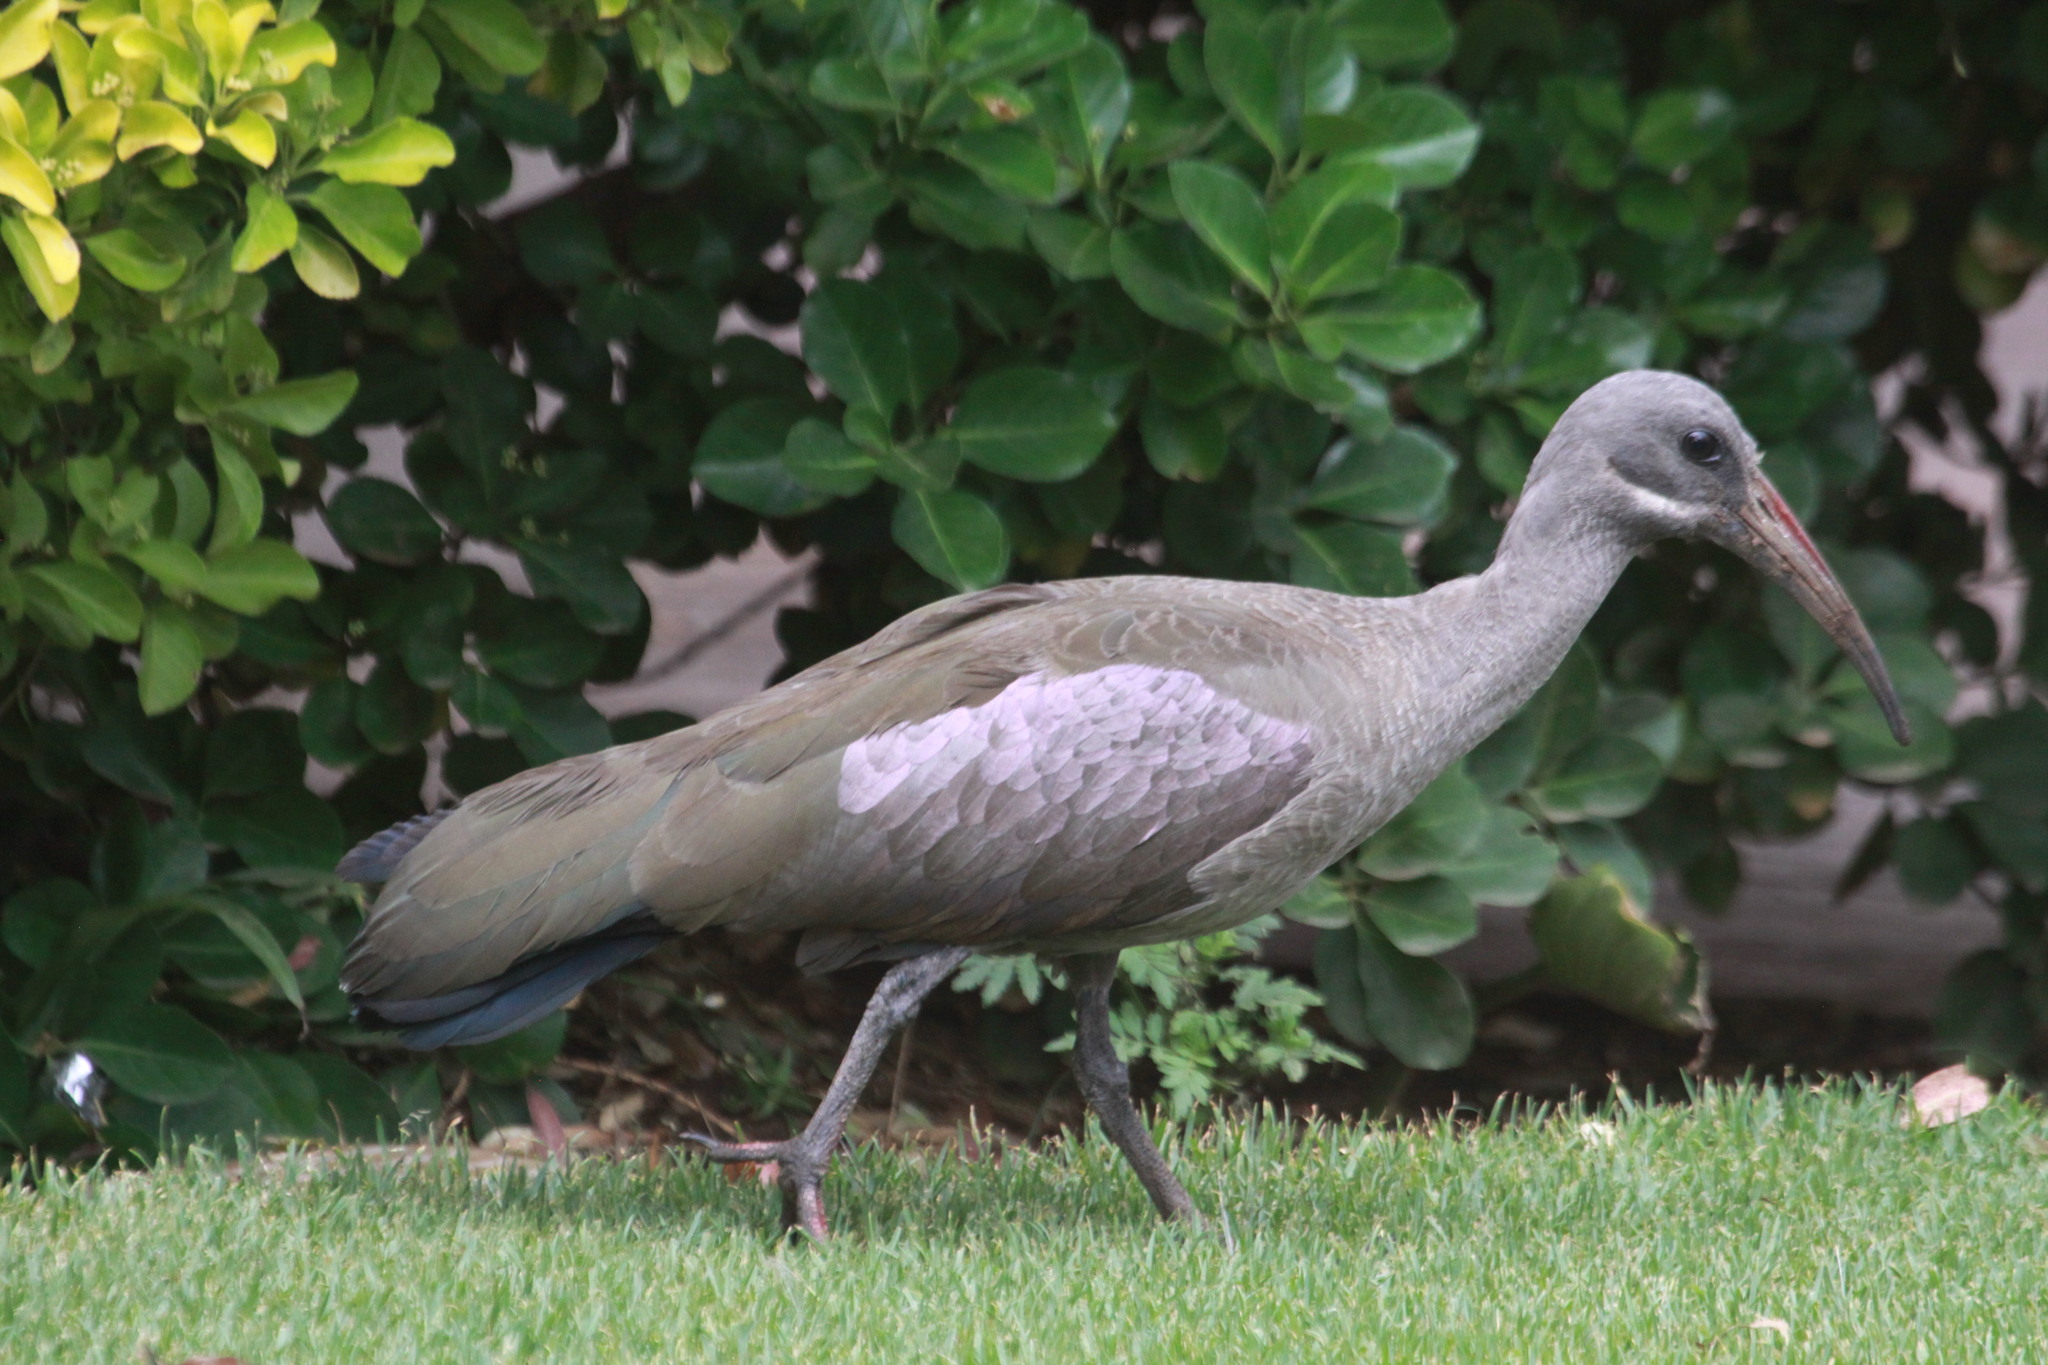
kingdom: Animalia
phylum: Chordata
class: Aves
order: Pelecaniformes
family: Threskiornithidae
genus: Bostrychia
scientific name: Bostrychia hagedash
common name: Hadada ibis
